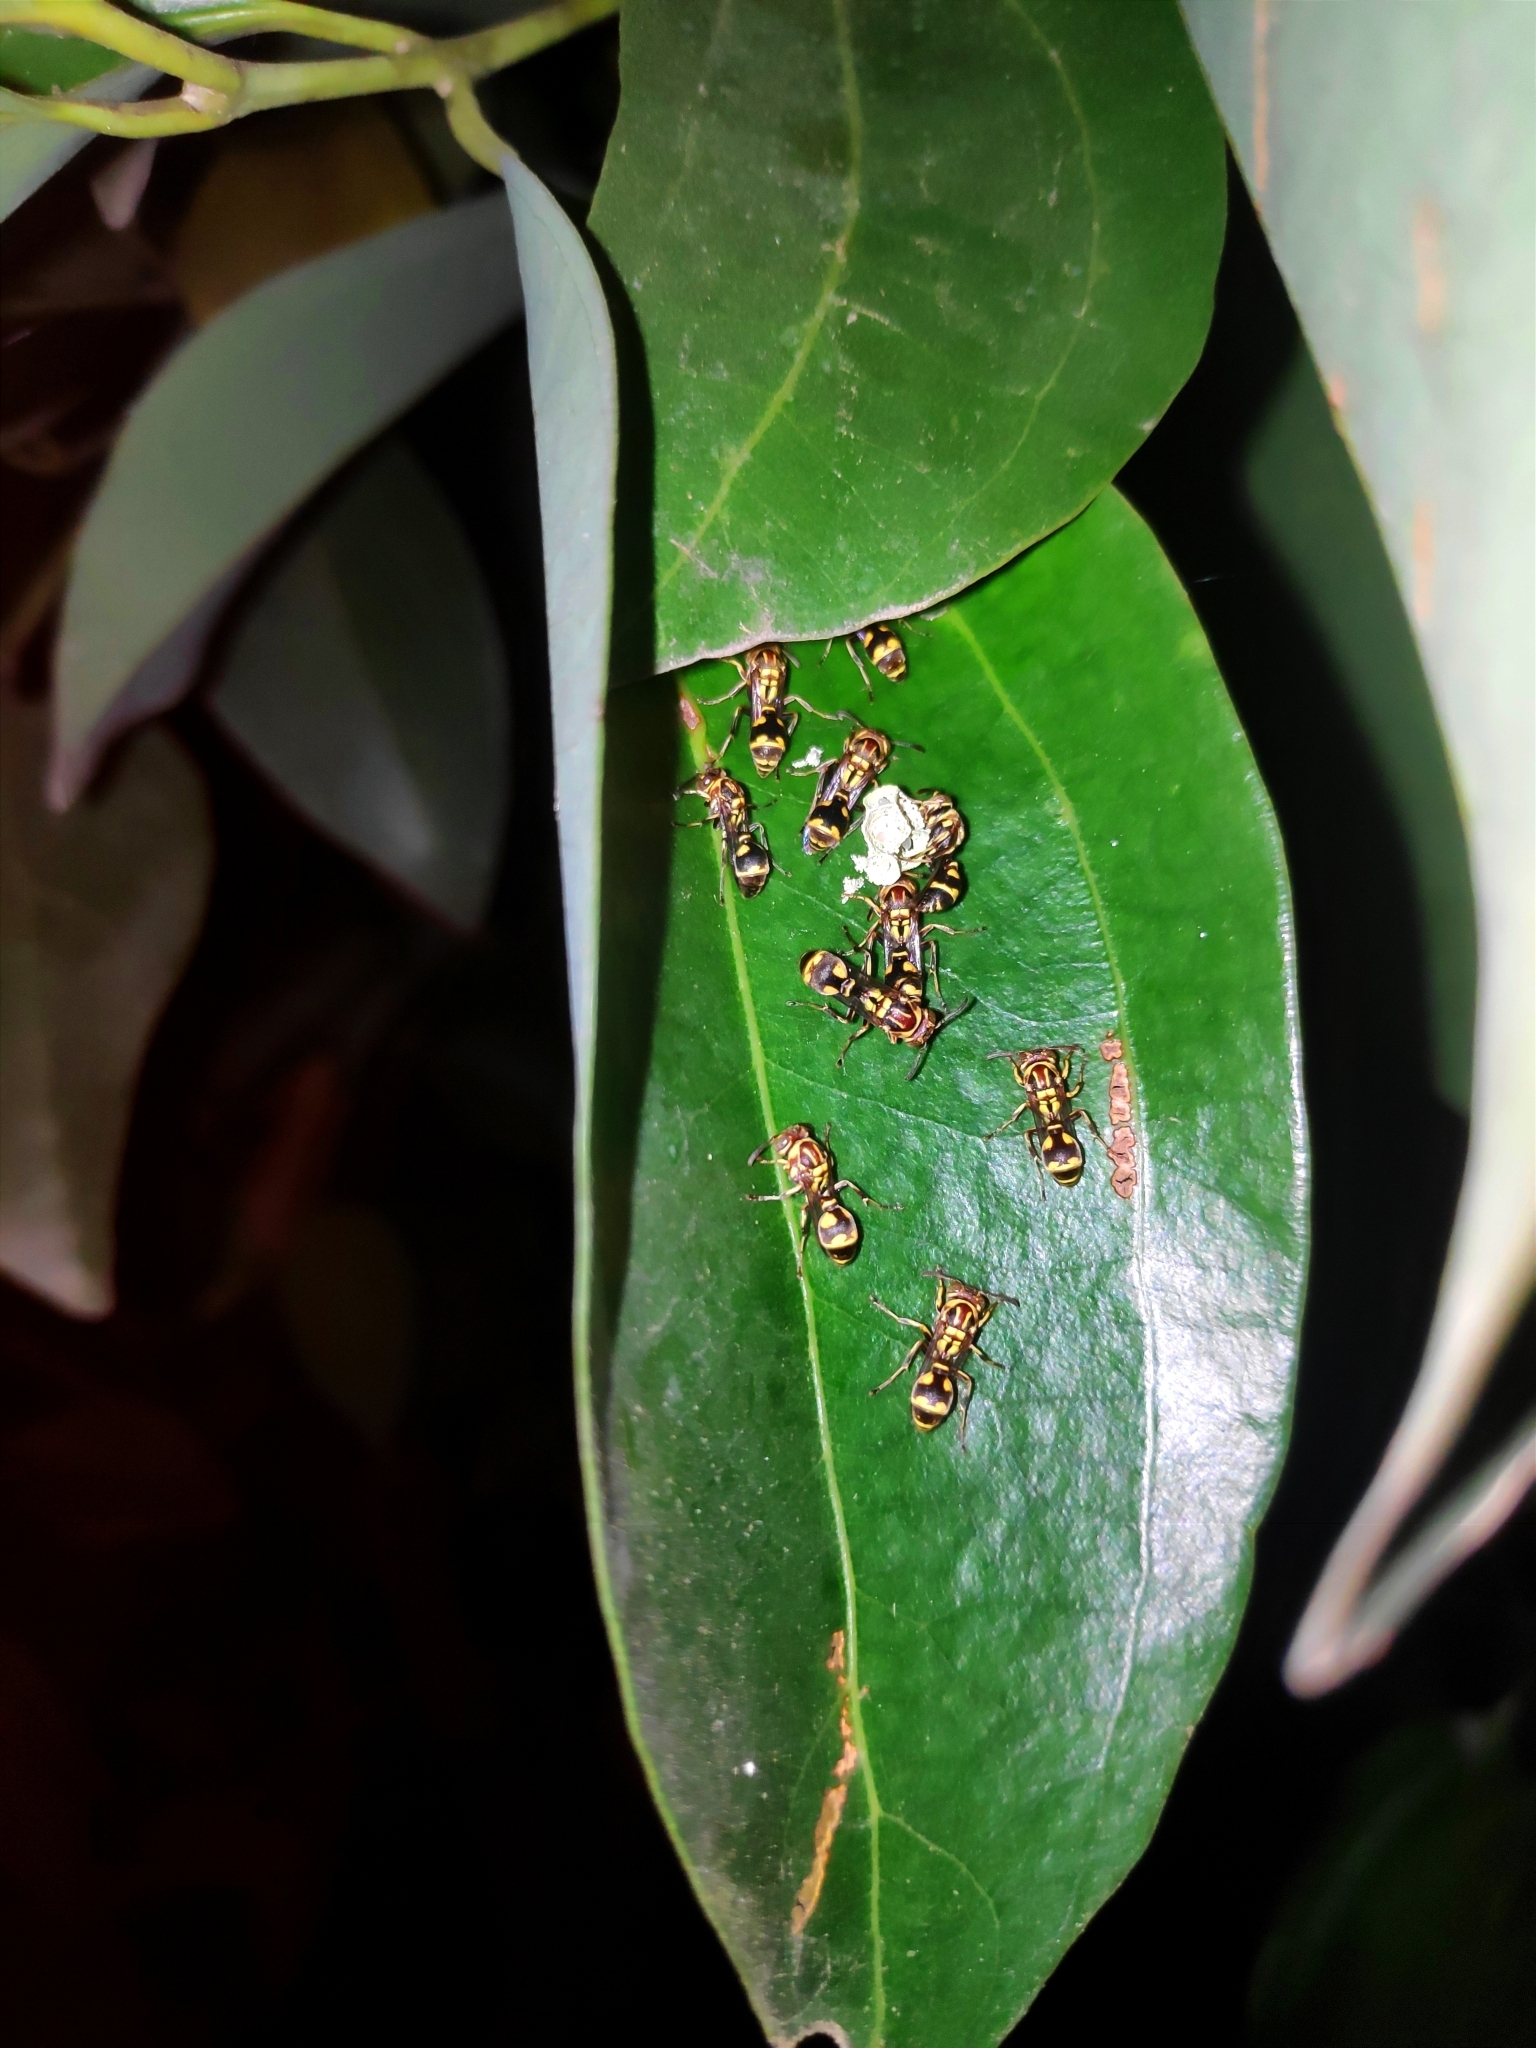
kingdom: Animalia
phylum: Arthropoda
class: Insecta
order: Hymenoptera
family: Vespidae
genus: Ropalidia
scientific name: Ropalidia cyathiformis
